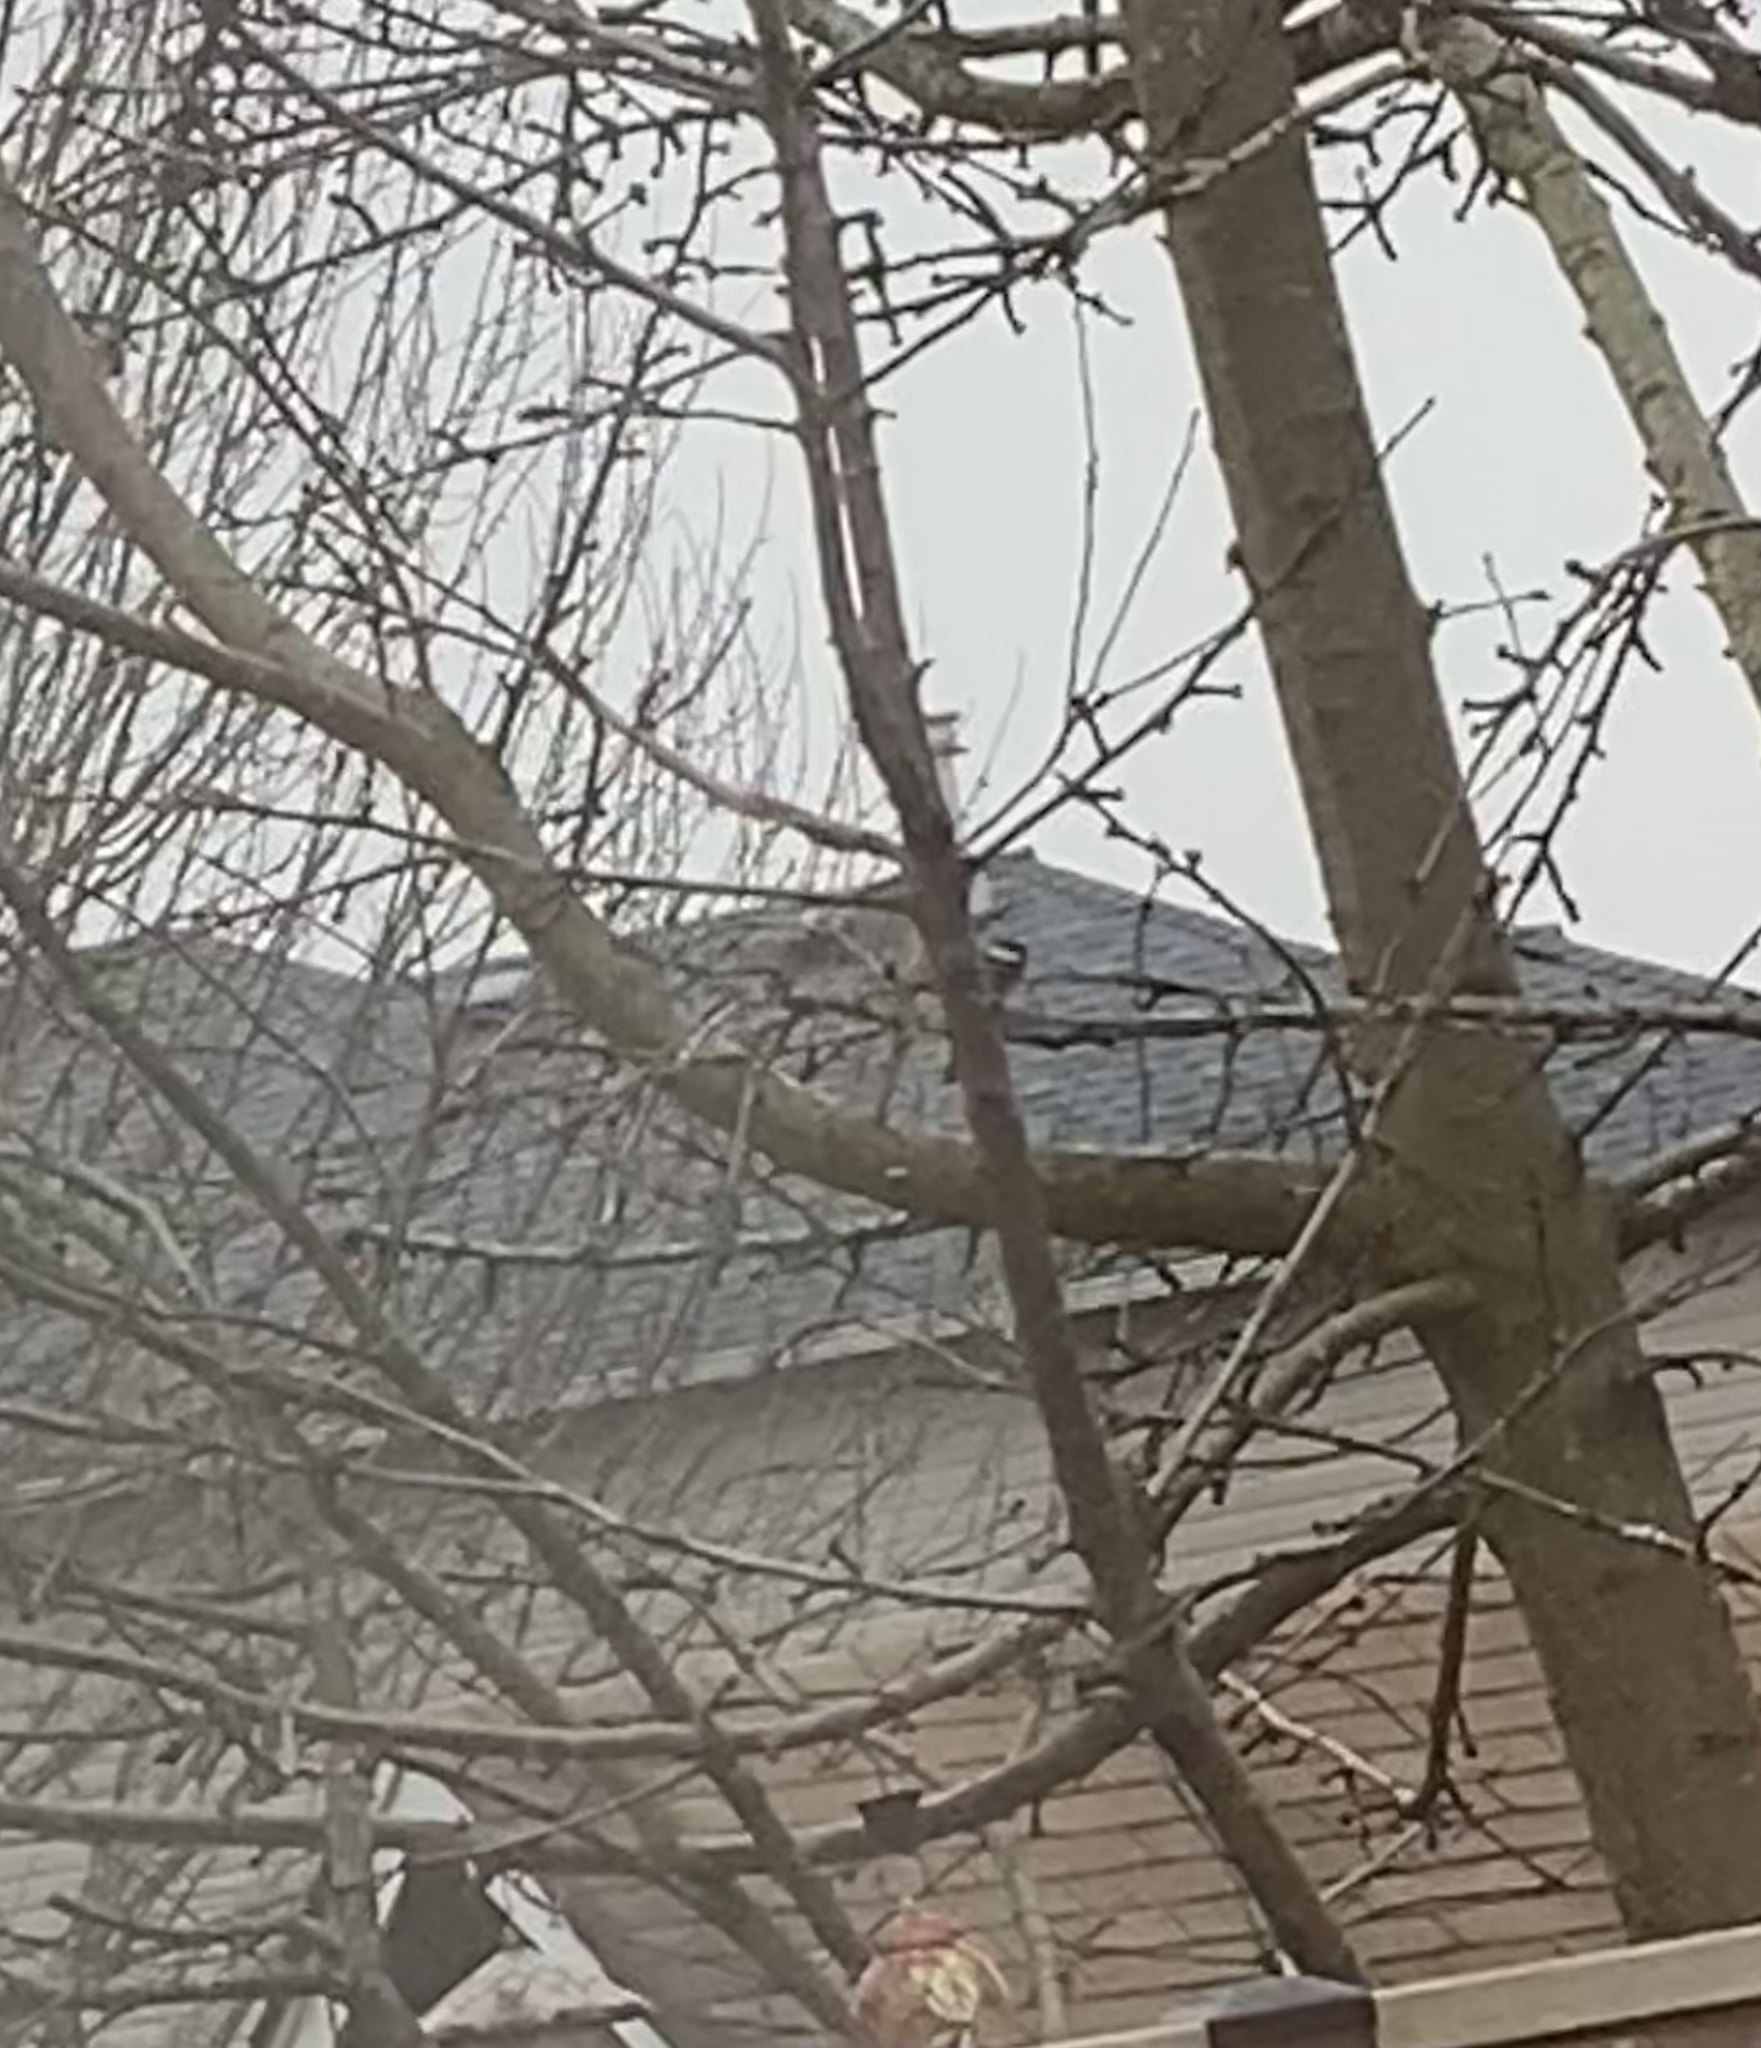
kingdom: Animalia
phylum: Chordata
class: Aves
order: Passeriformes
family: Paridae
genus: Poecile
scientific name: Poecile atricapillus
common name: Black-capped chickadee
